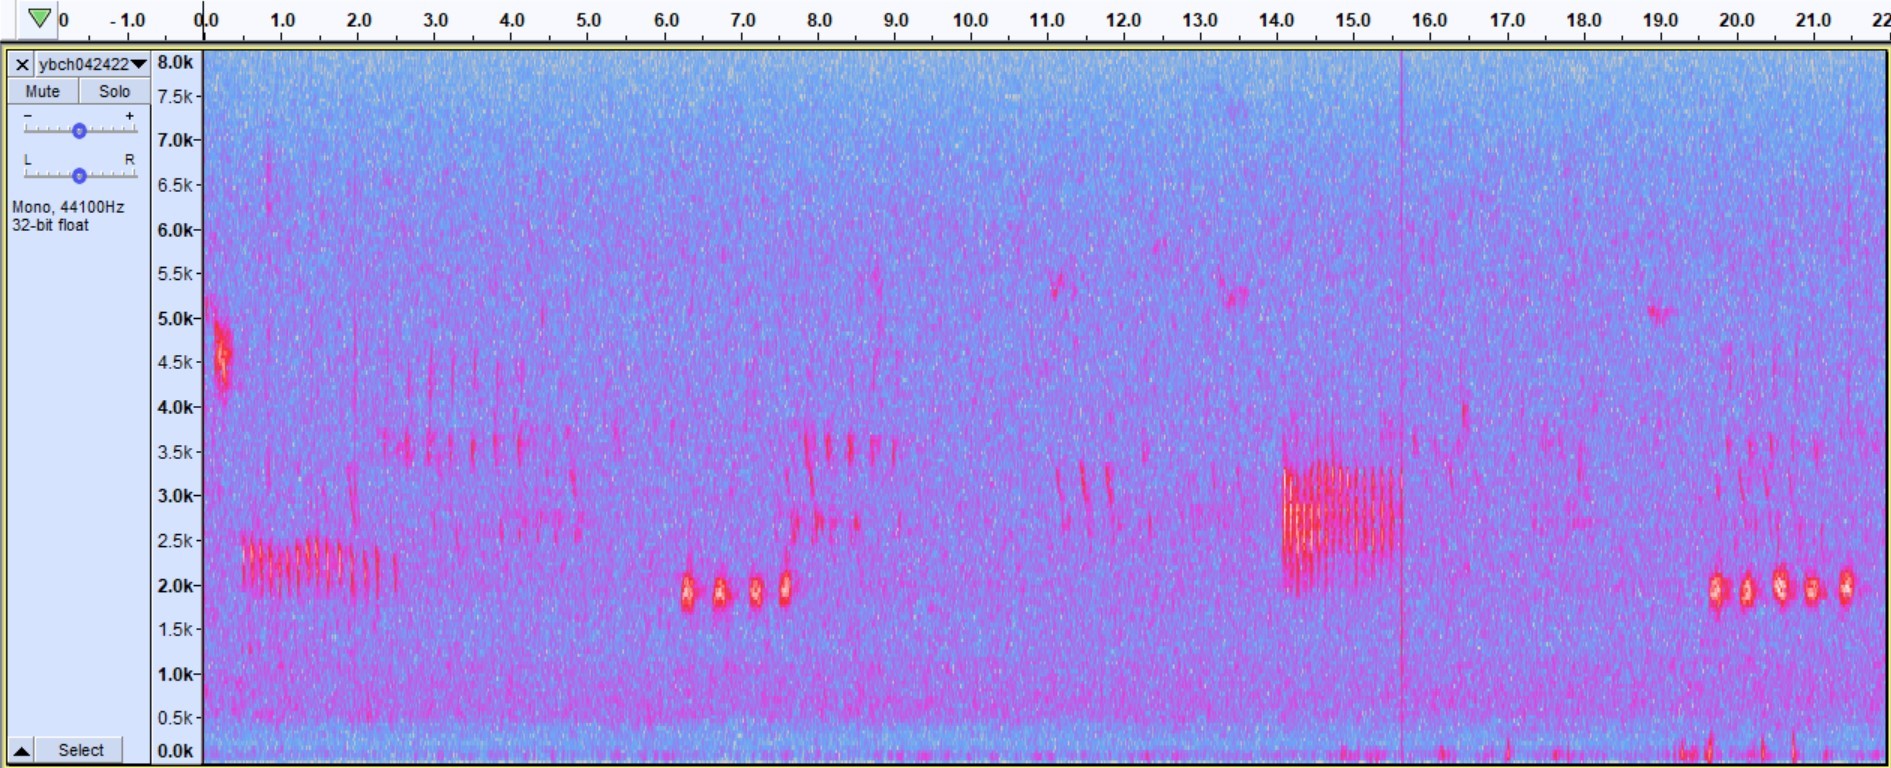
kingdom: Animalia
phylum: Chordata
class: Aves
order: Passeriformes
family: Parulidae
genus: Icteria
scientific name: Icteria virens
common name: Yellow-breasted chat
